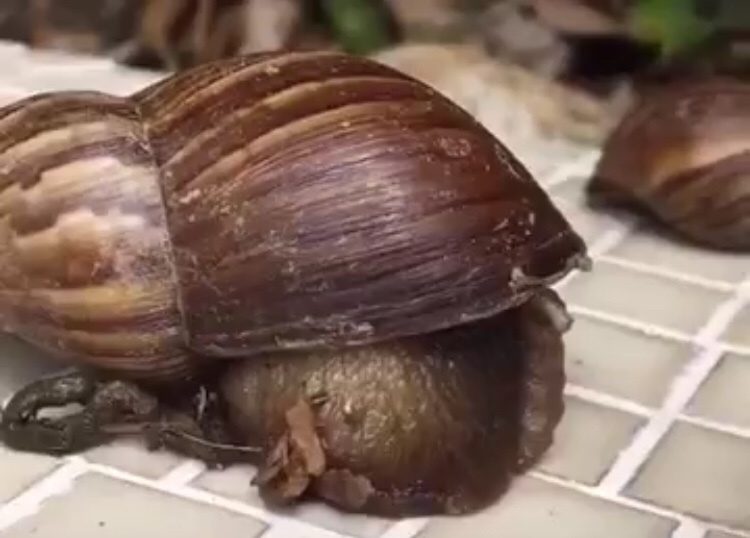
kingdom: Animalia
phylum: Mollusca
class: Gastropoda
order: Stylommatophora
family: Achatinidae
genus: Lissachatina
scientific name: Lissachatina fulica
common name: Giant african snail
